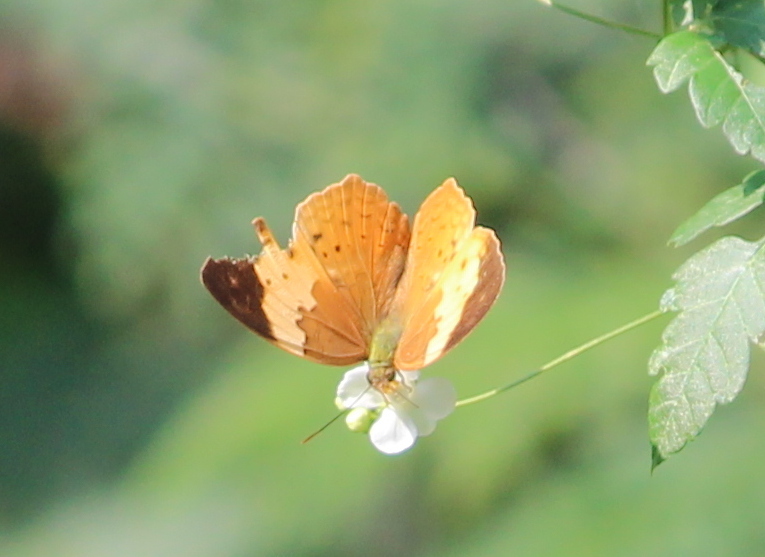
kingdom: Animalia
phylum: Arthropoda
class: Insecta
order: Lepidoptera
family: Nymphalidae
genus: Cupha
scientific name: Cupha erymanthis
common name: Rustic
